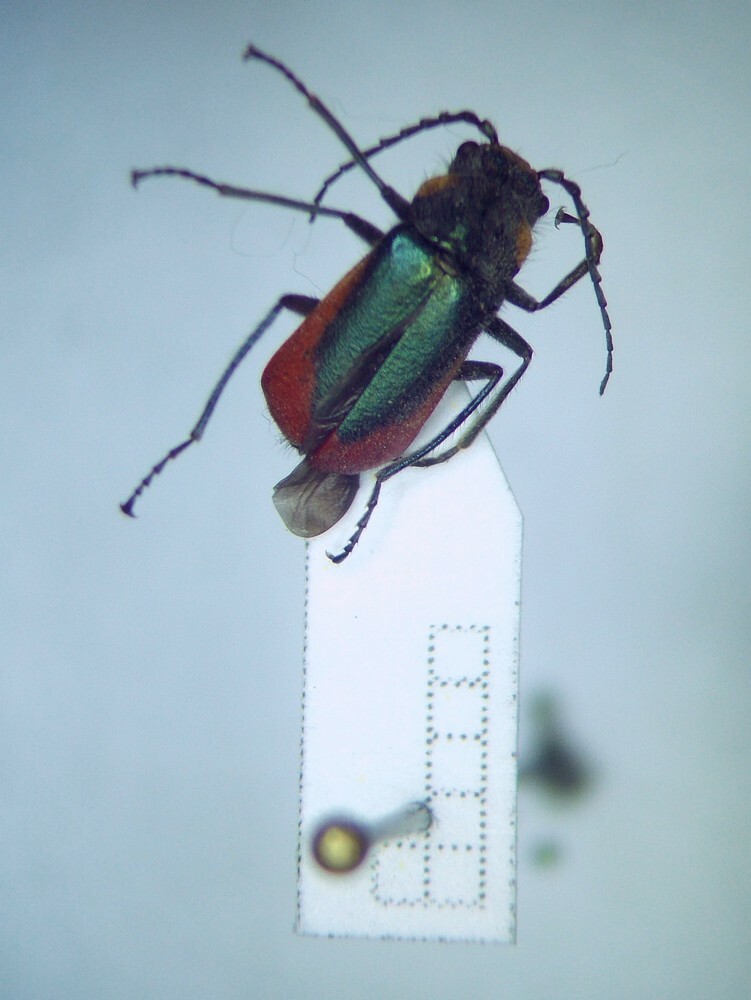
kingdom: Animalia
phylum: Arthropoda
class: Insecta
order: Coleoptera
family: Melyridae
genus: Malachius
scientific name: Malachius aeneus
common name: Scarlet malachite beetle
